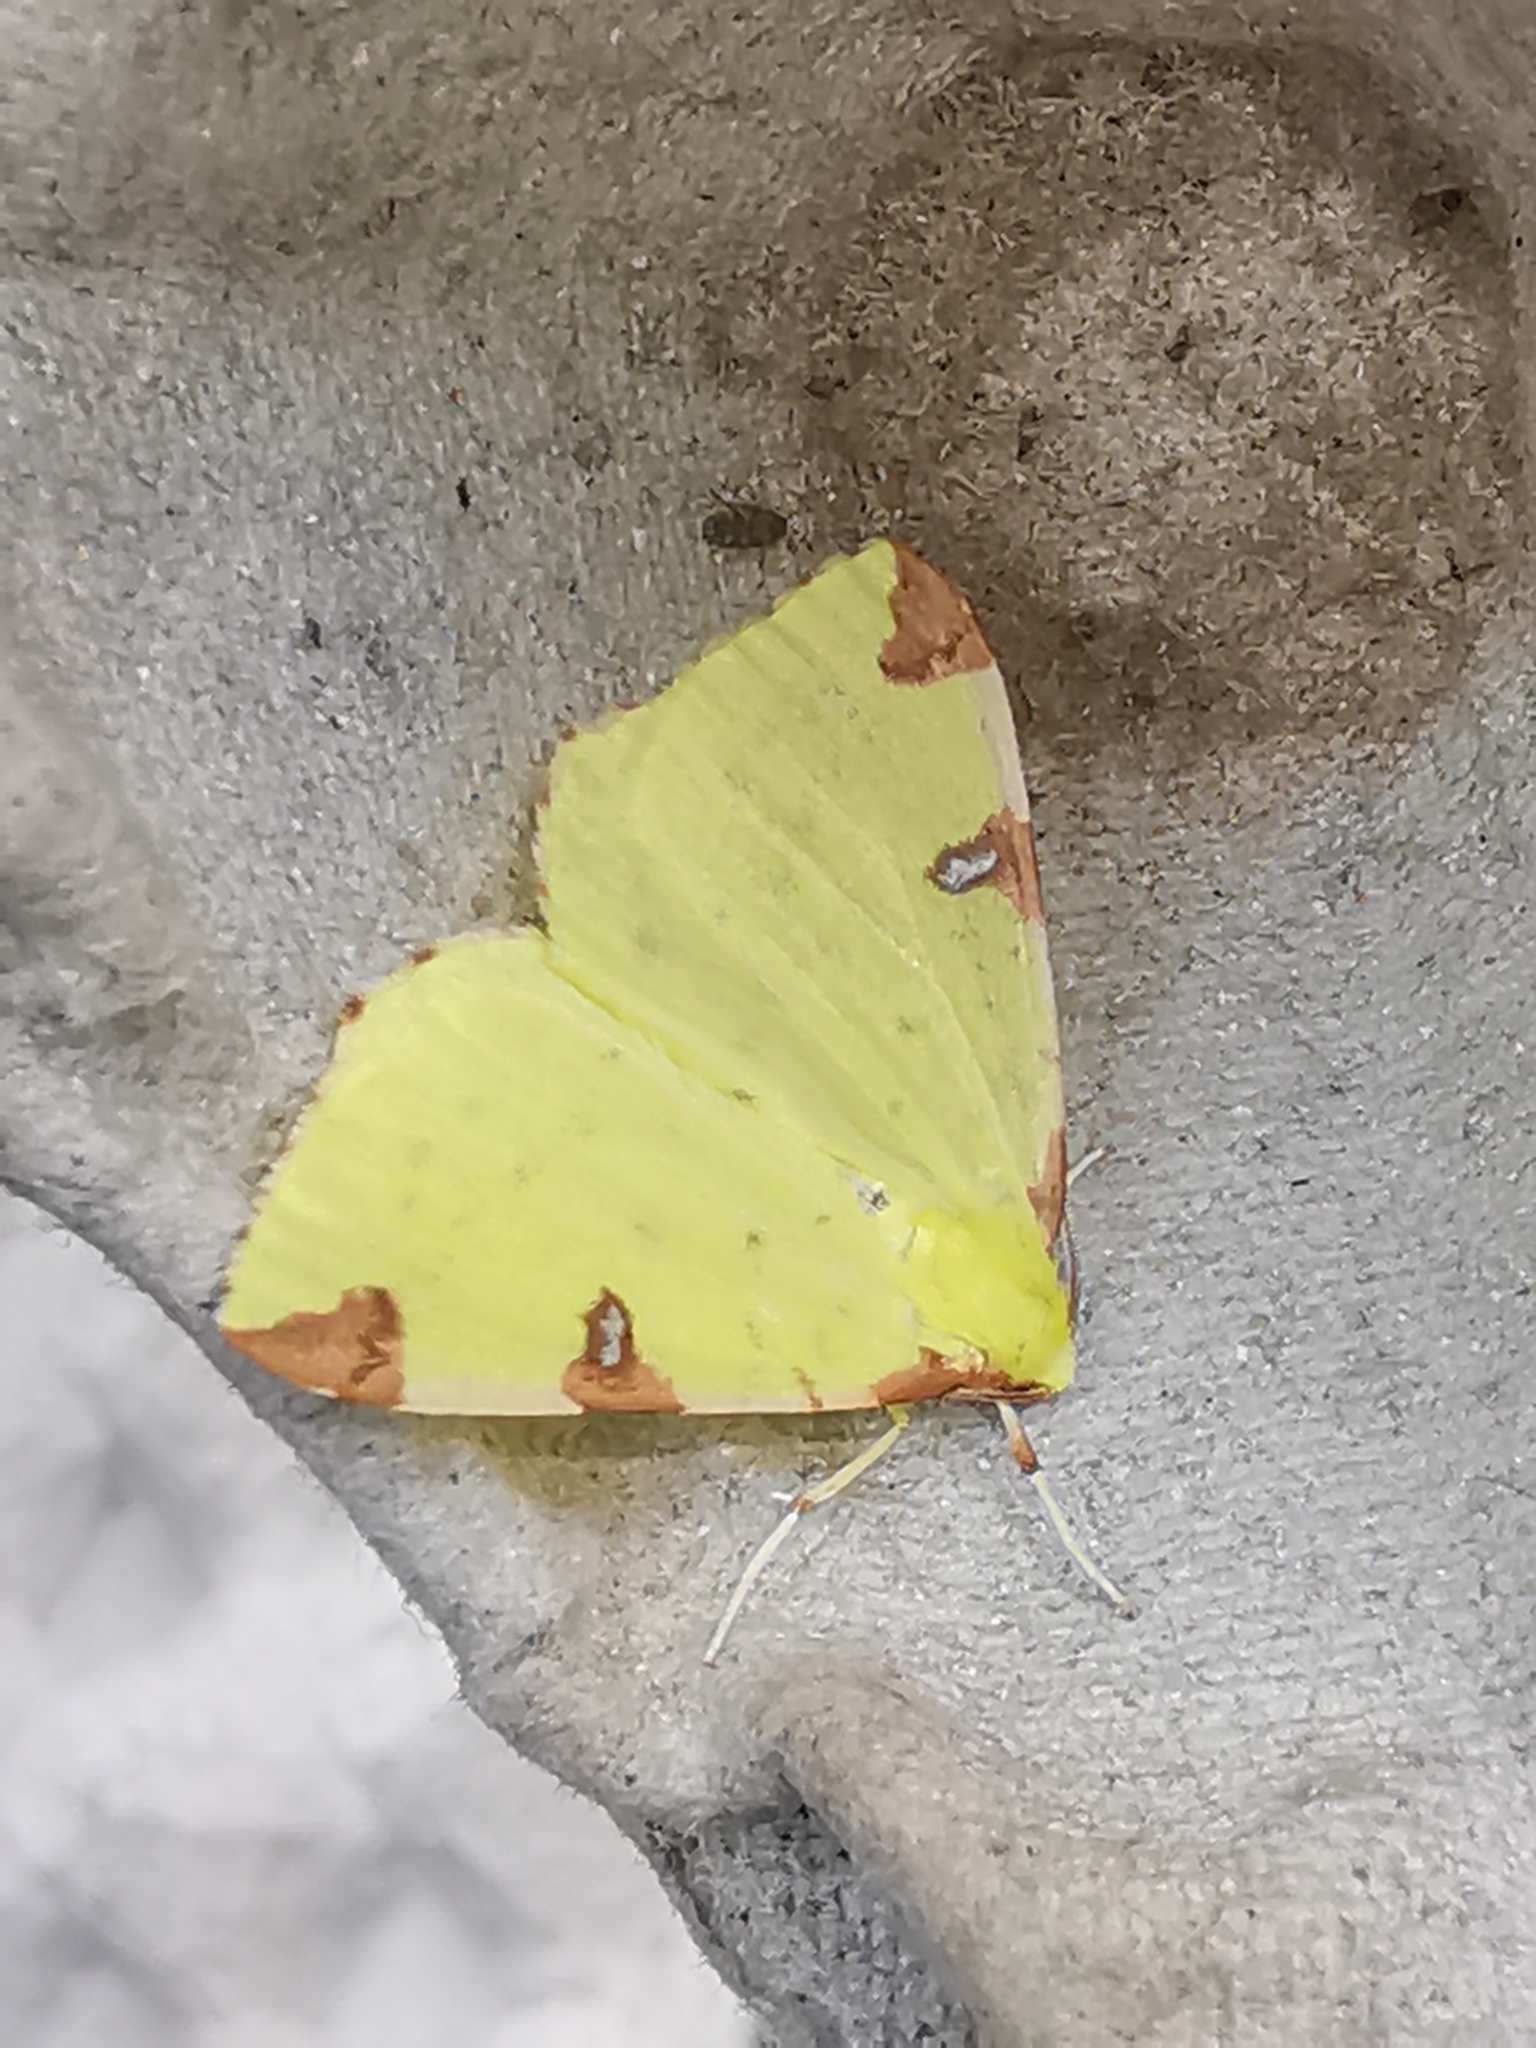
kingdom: Animalia
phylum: Arthropoda
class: Insecta
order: Lepidoptera
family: Geometridae
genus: Opisthograptis
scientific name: Opisthograptis luteolata
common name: Brimstone moth
